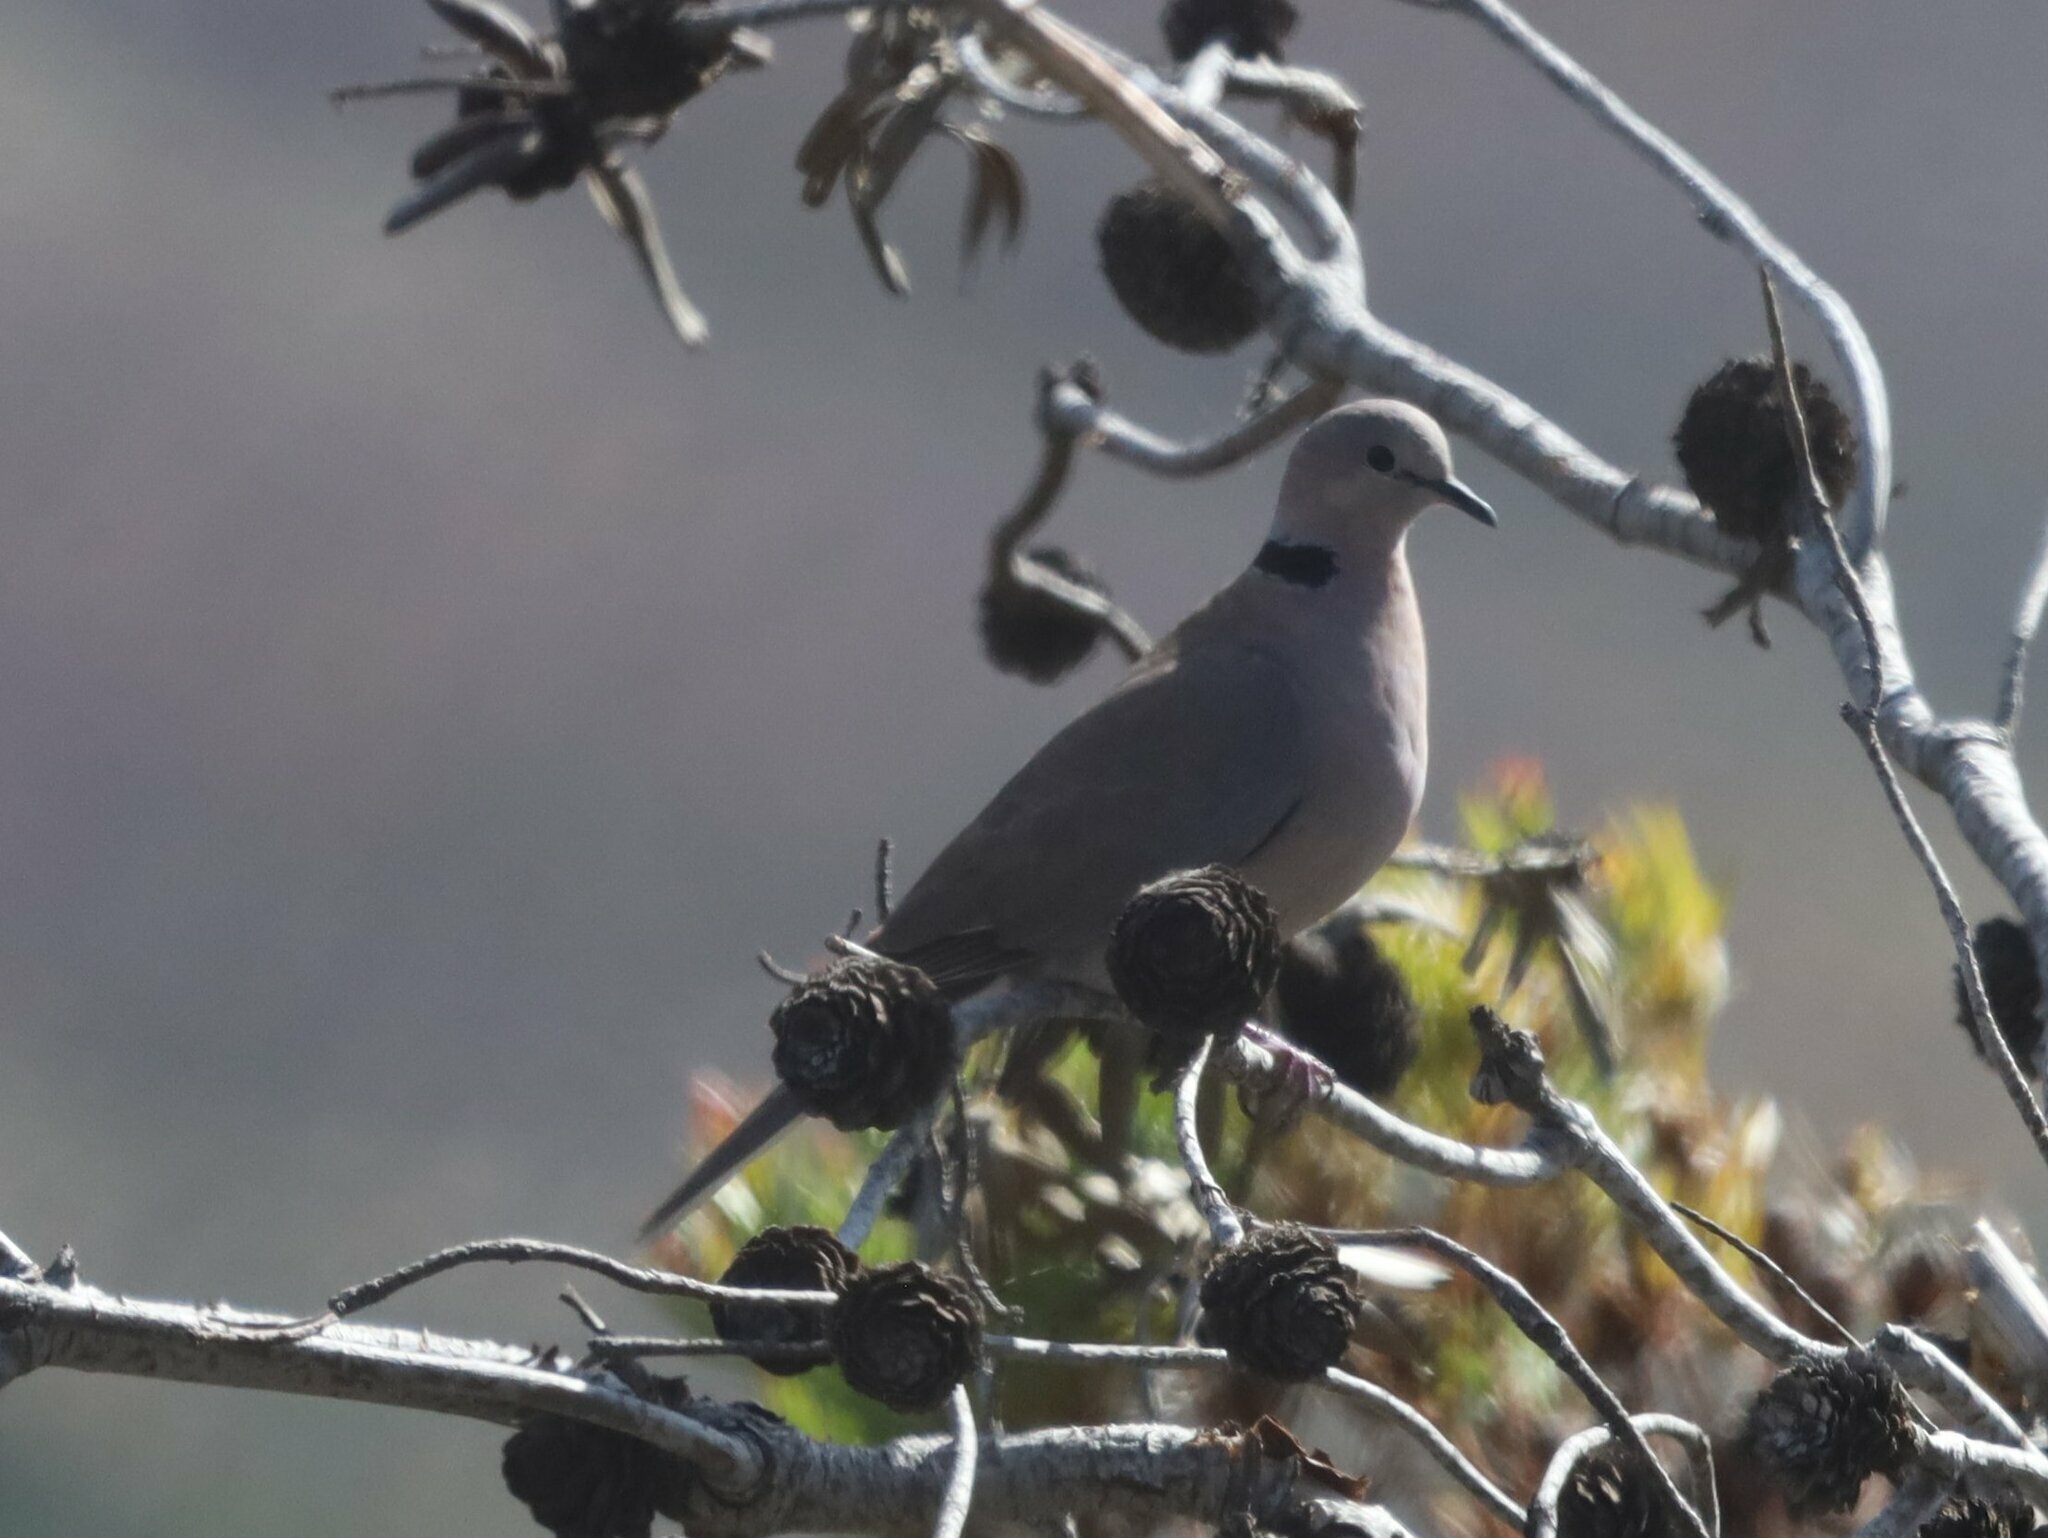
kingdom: Animalia
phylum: Chordata
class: Aves
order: Columbiformes
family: Columbidae
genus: Streptopelia
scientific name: Streptopelia capicola
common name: Ring-necked dove
